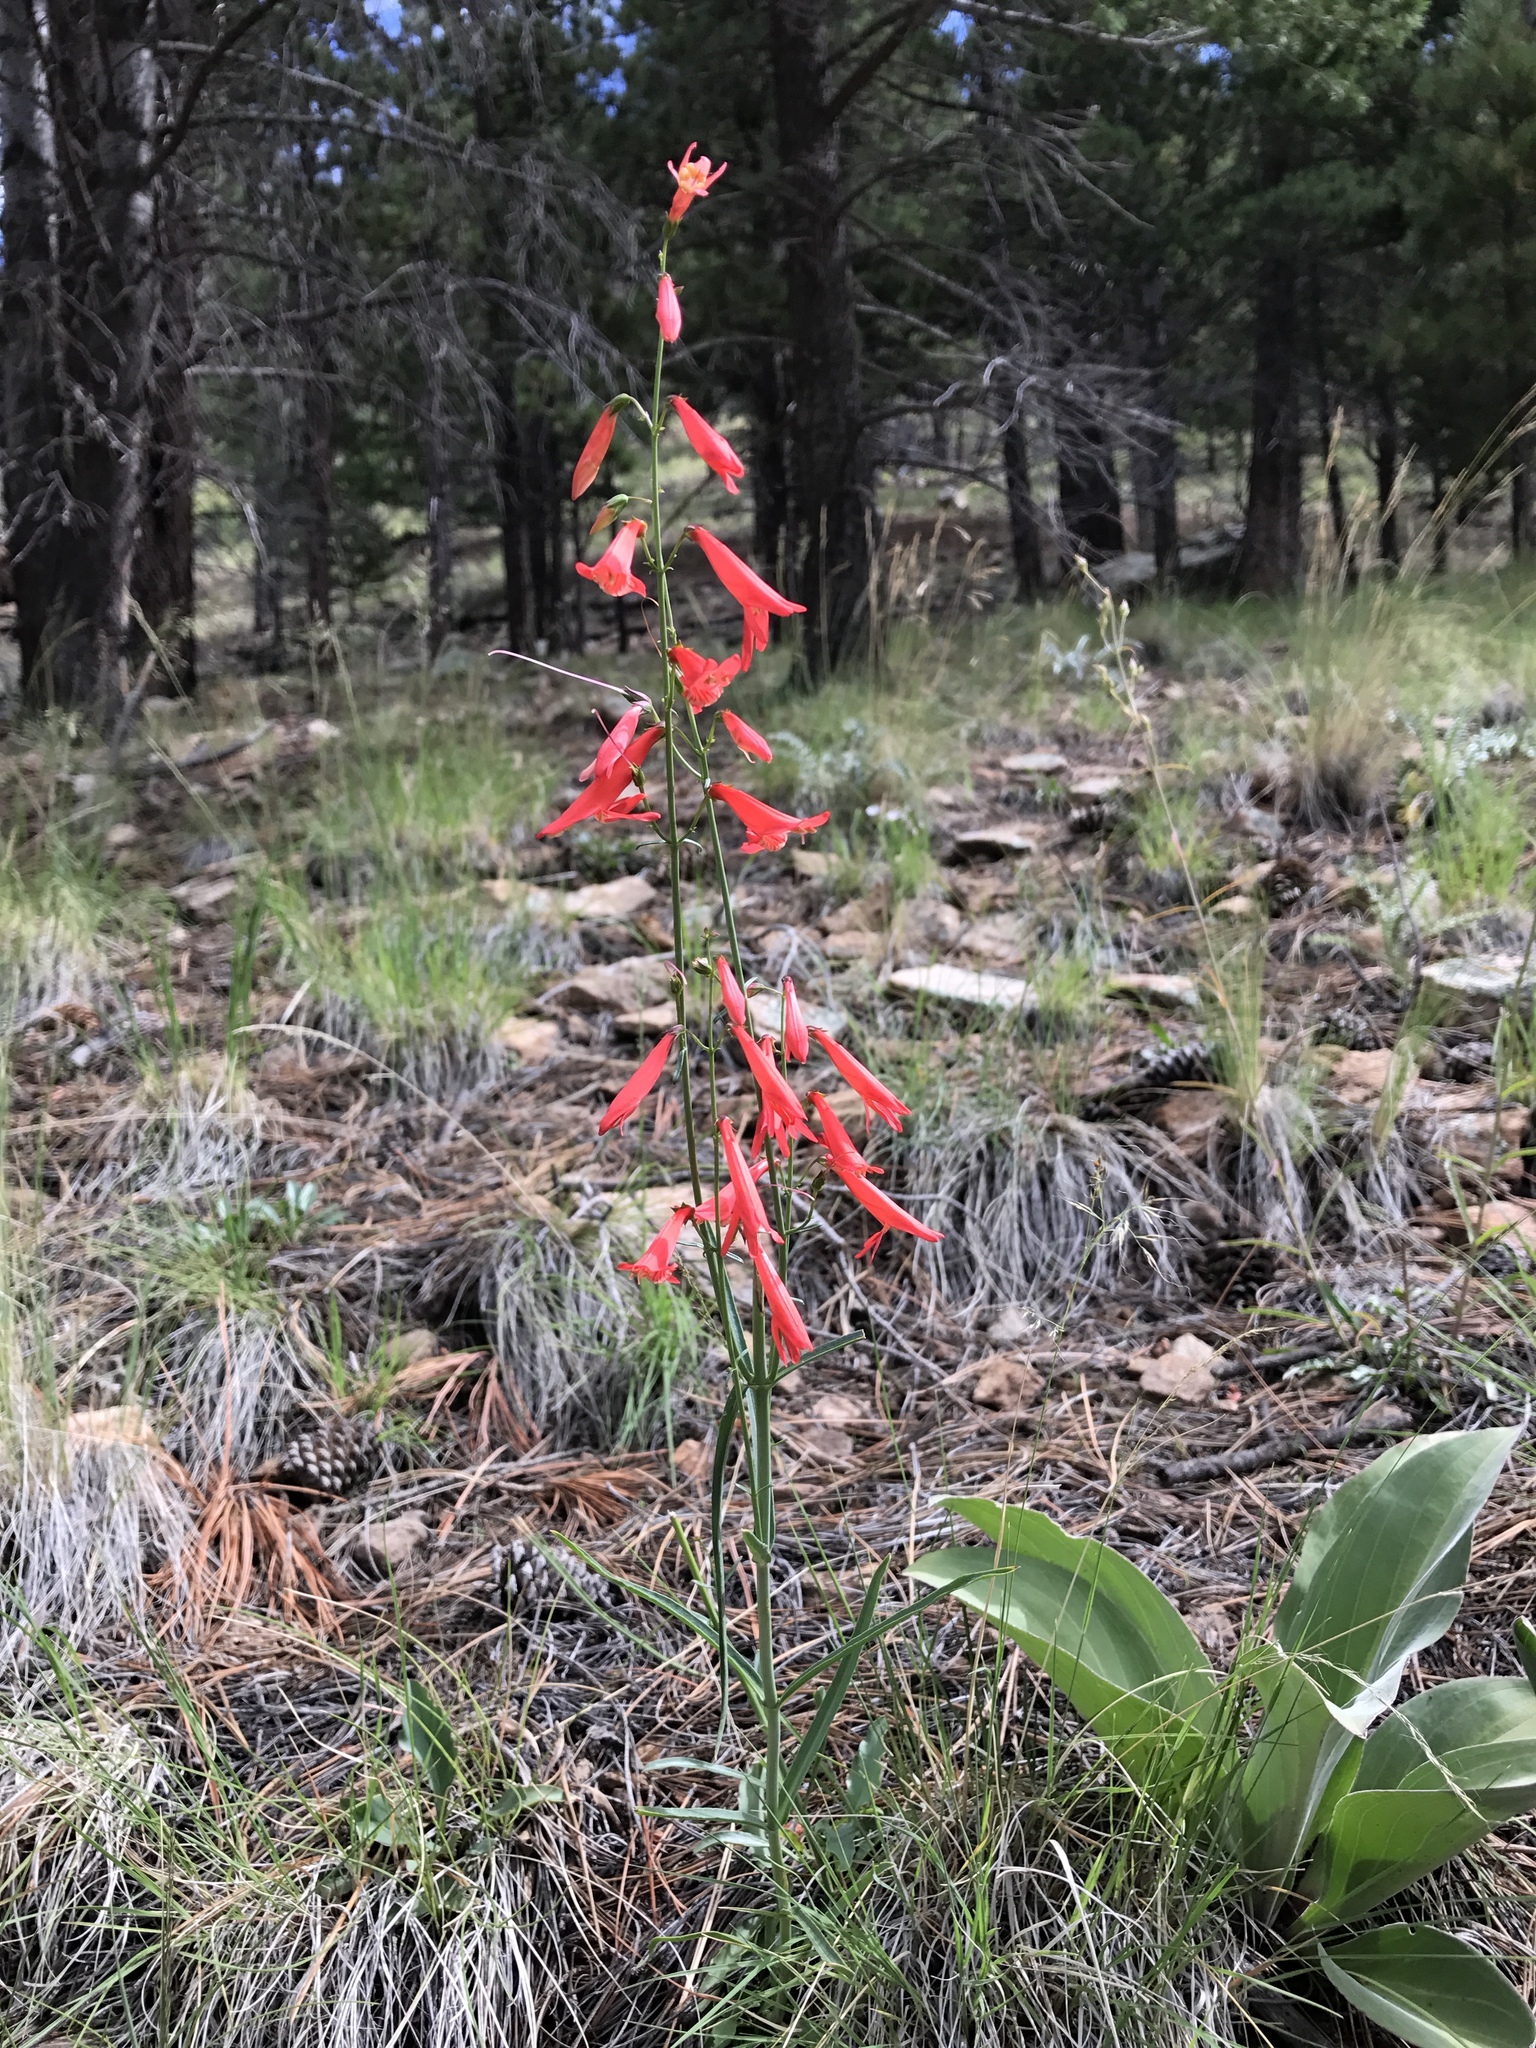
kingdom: Plantae
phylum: Tracheophyta
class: Magnoliopsida
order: Lamiales
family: Plantaginaceae
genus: Penstemon
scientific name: Penstemon barbatus
